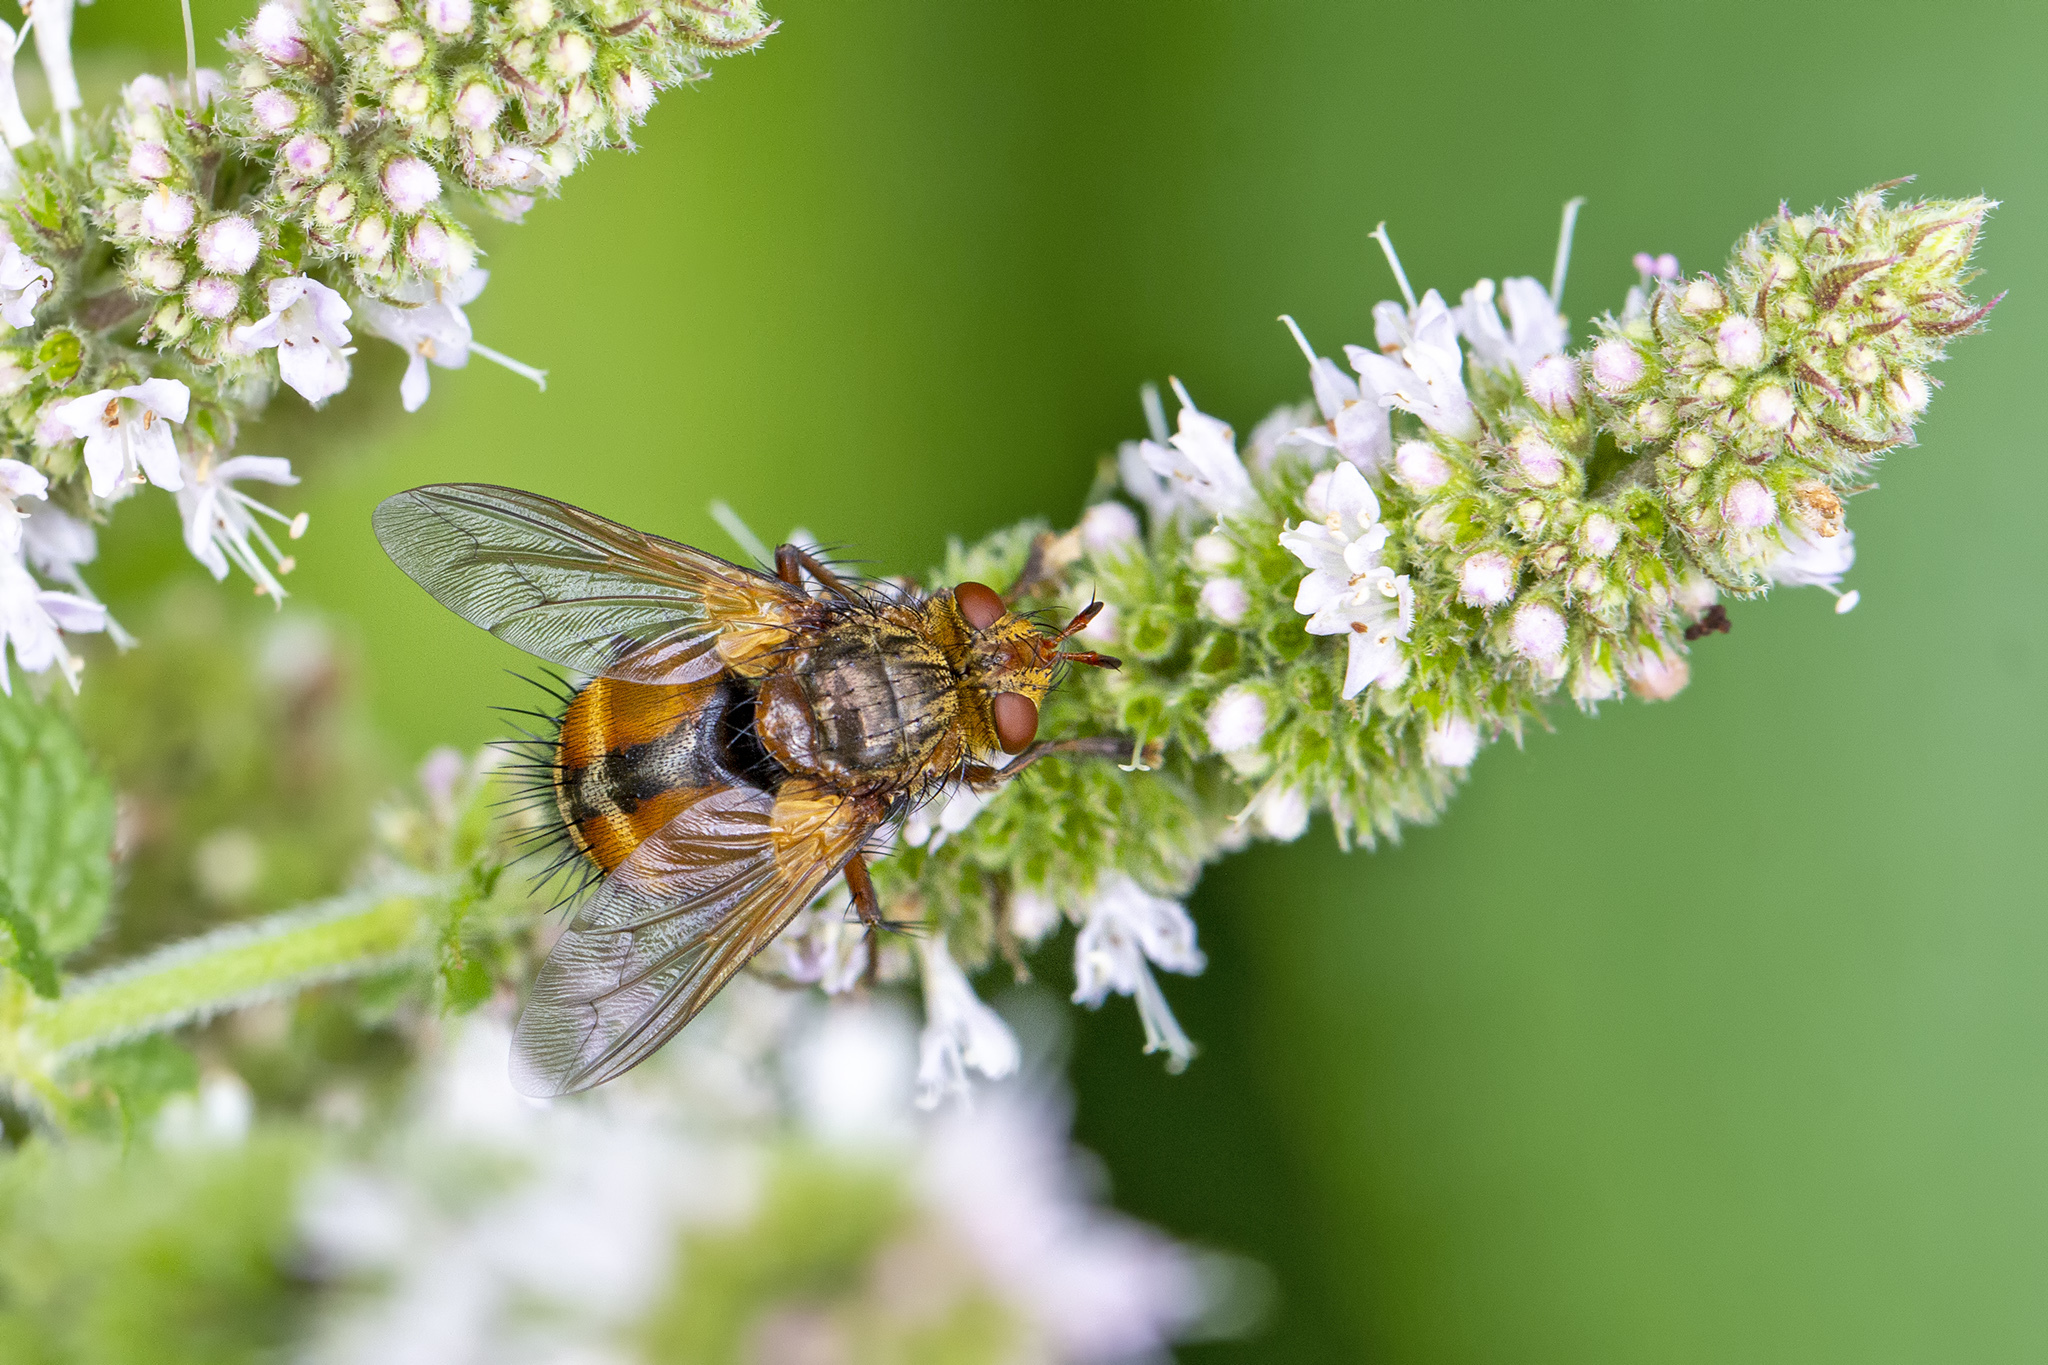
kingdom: Animalia
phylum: Arthropoda
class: Insecta
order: Diptera
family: Tachinidae
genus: Tachina
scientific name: Tachina fera
